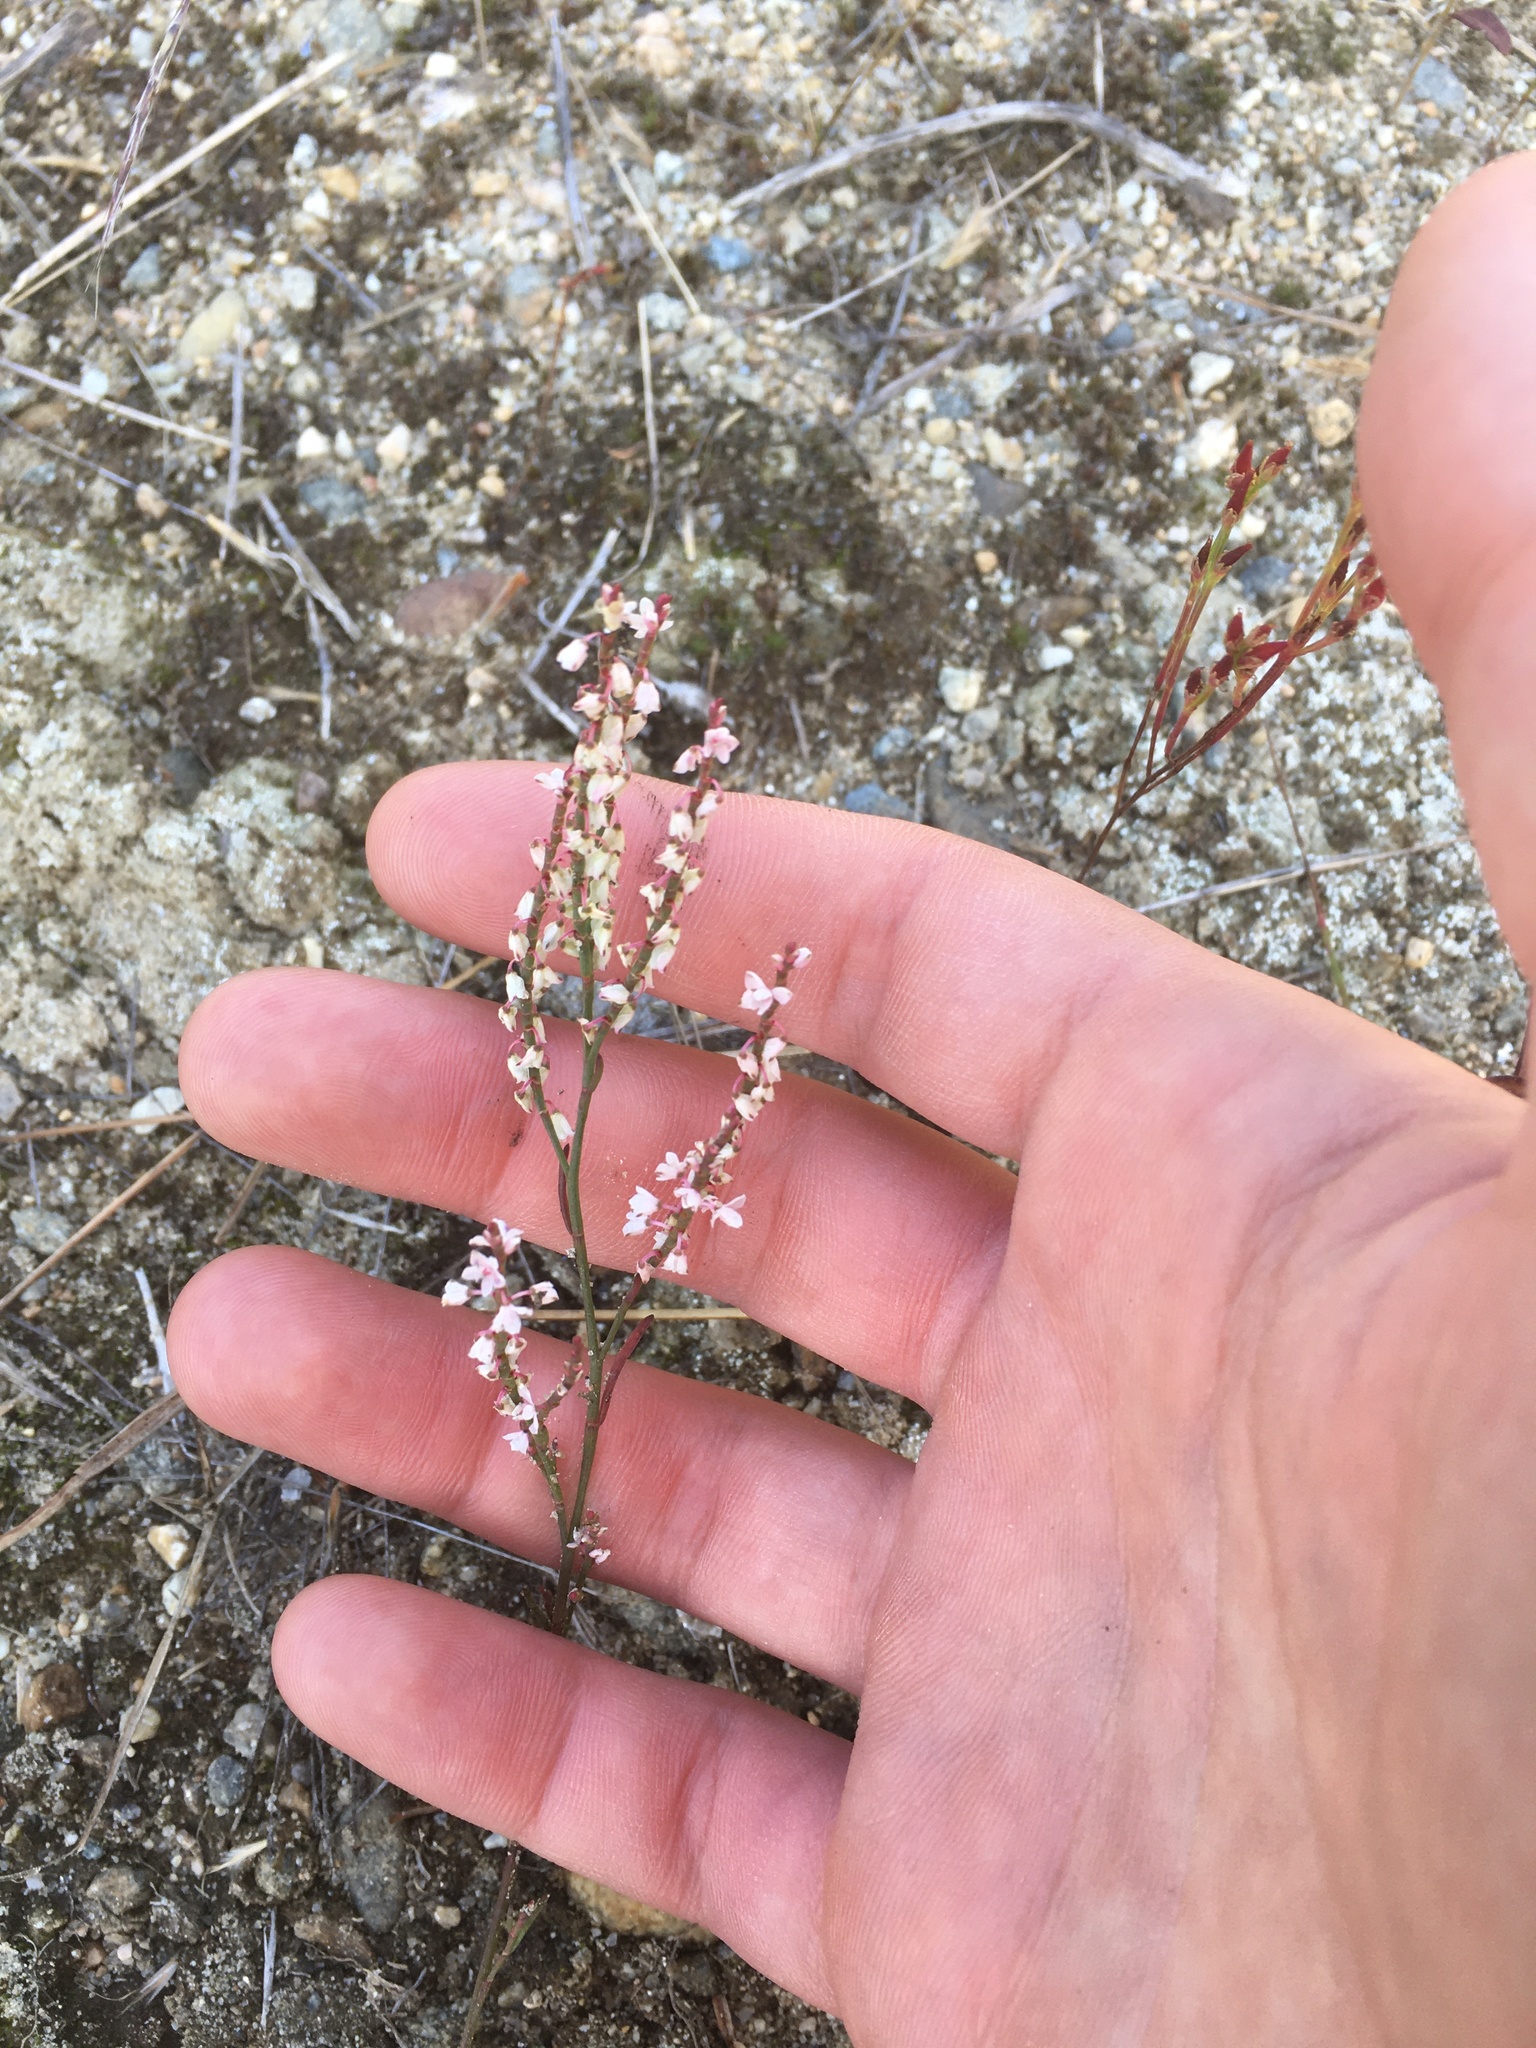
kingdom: Plantae
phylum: Tracheophyta
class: Magnoliopsida
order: Caryophyllales
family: Polygonaceae
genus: Polygonella
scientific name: Polygonella articulata
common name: Coastal jointweed
